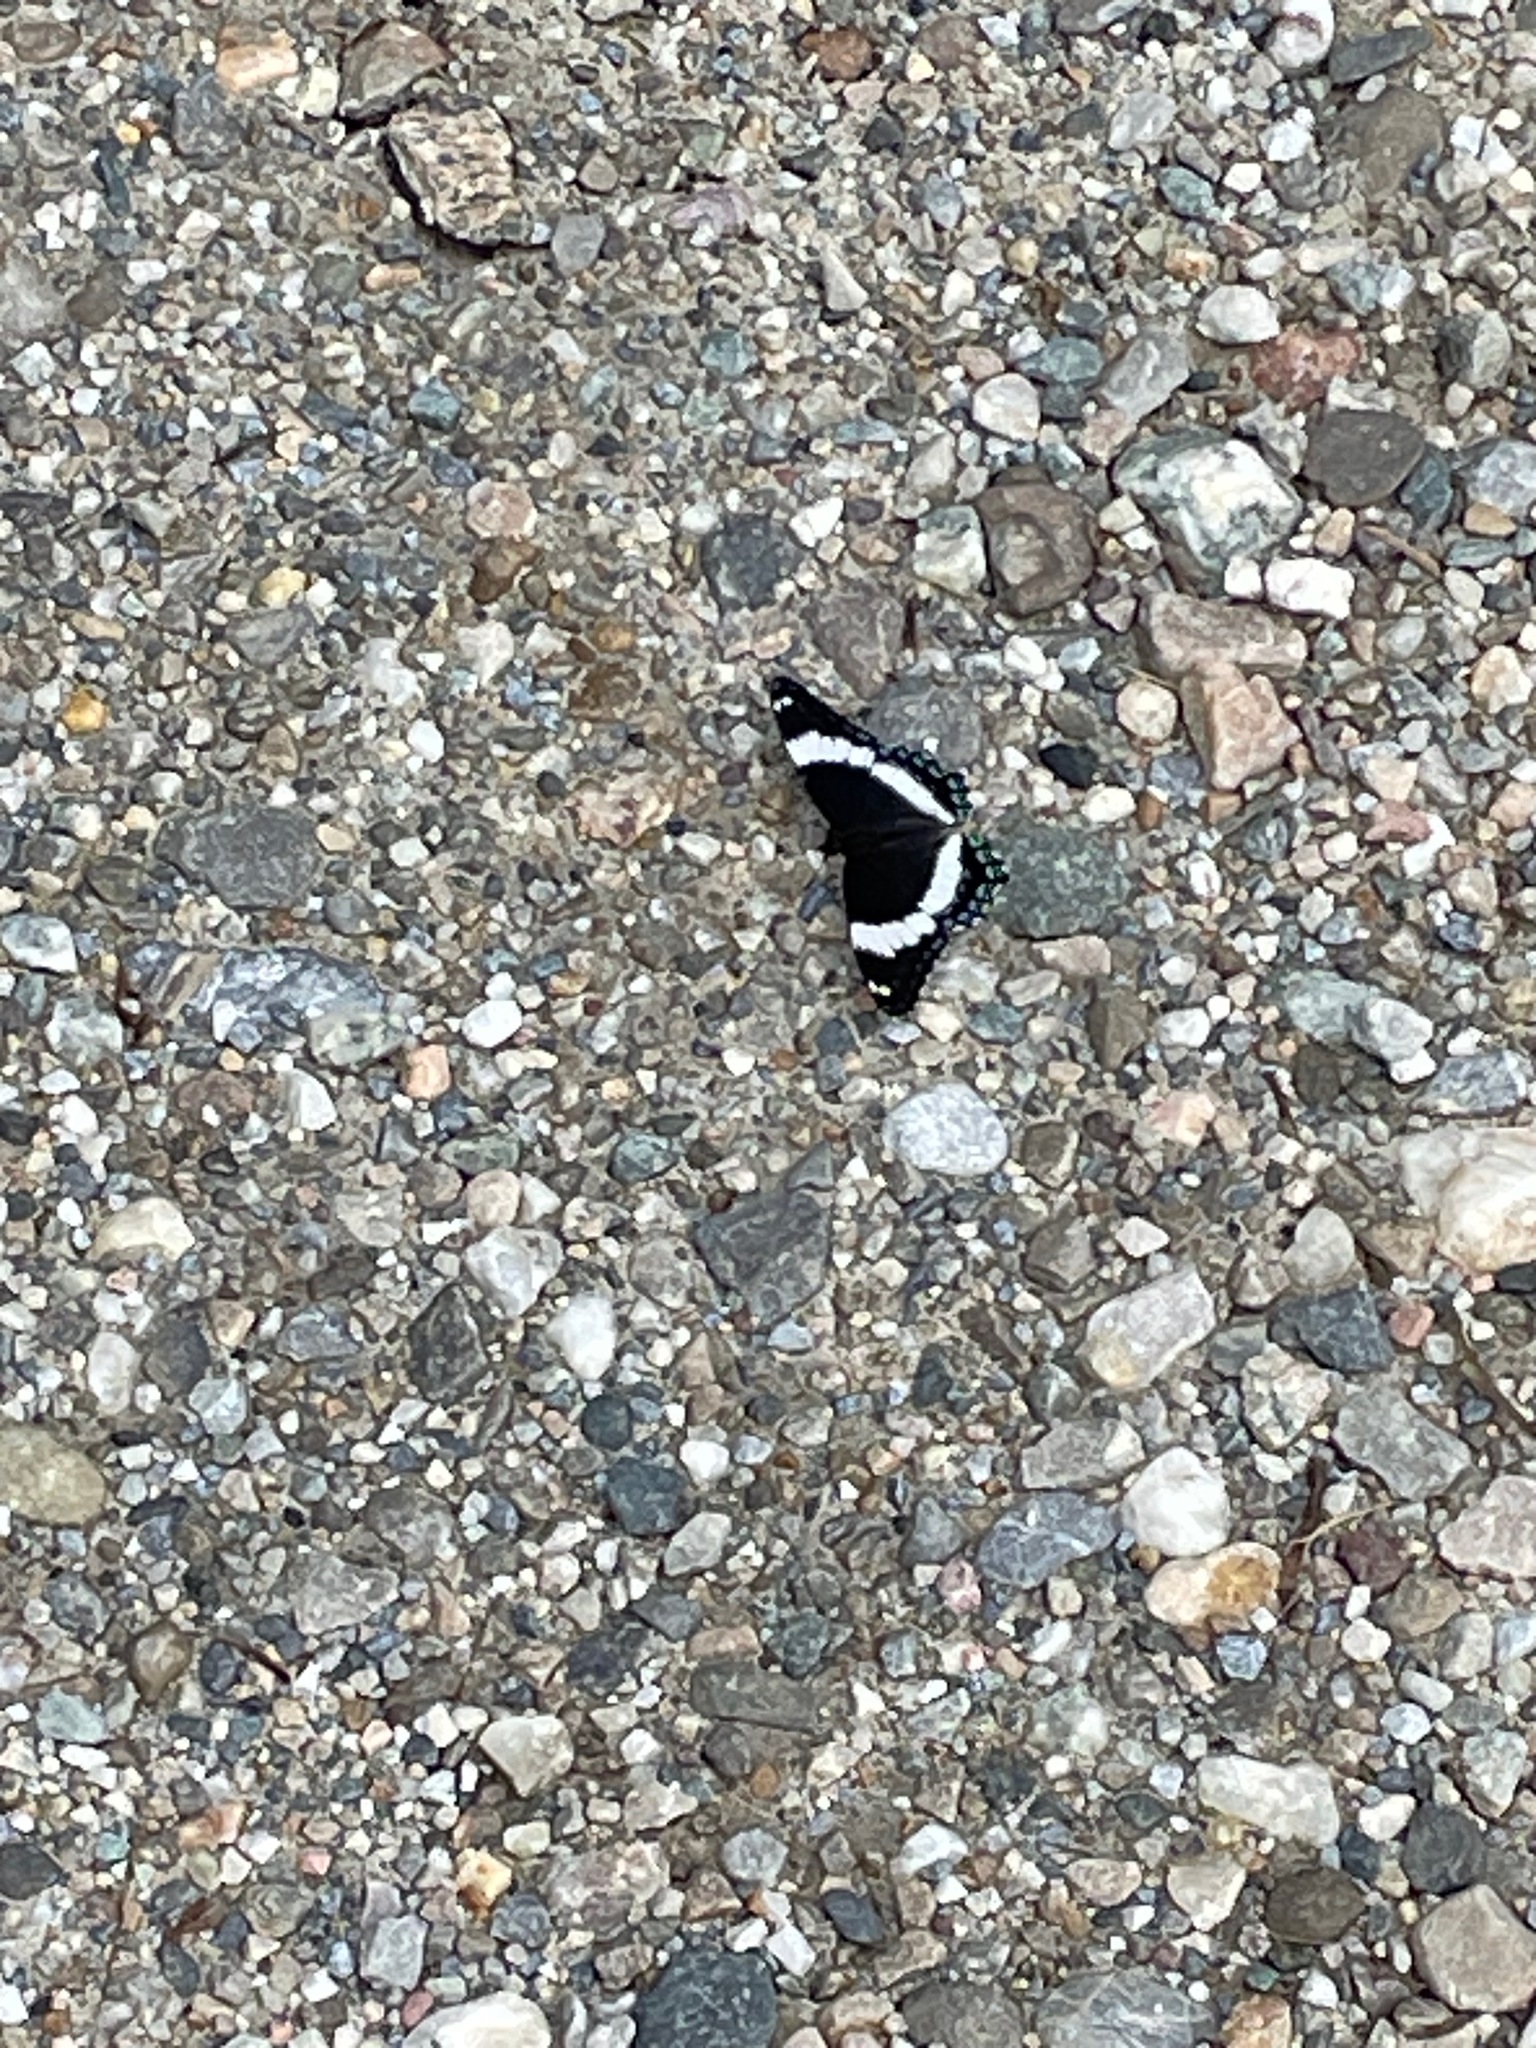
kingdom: Animalia
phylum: Arthropoda
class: Insecta
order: Lepidoptera
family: Nymphalidae
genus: Limenitis
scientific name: Limenitis arthemis
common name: Red-spotted admiral
